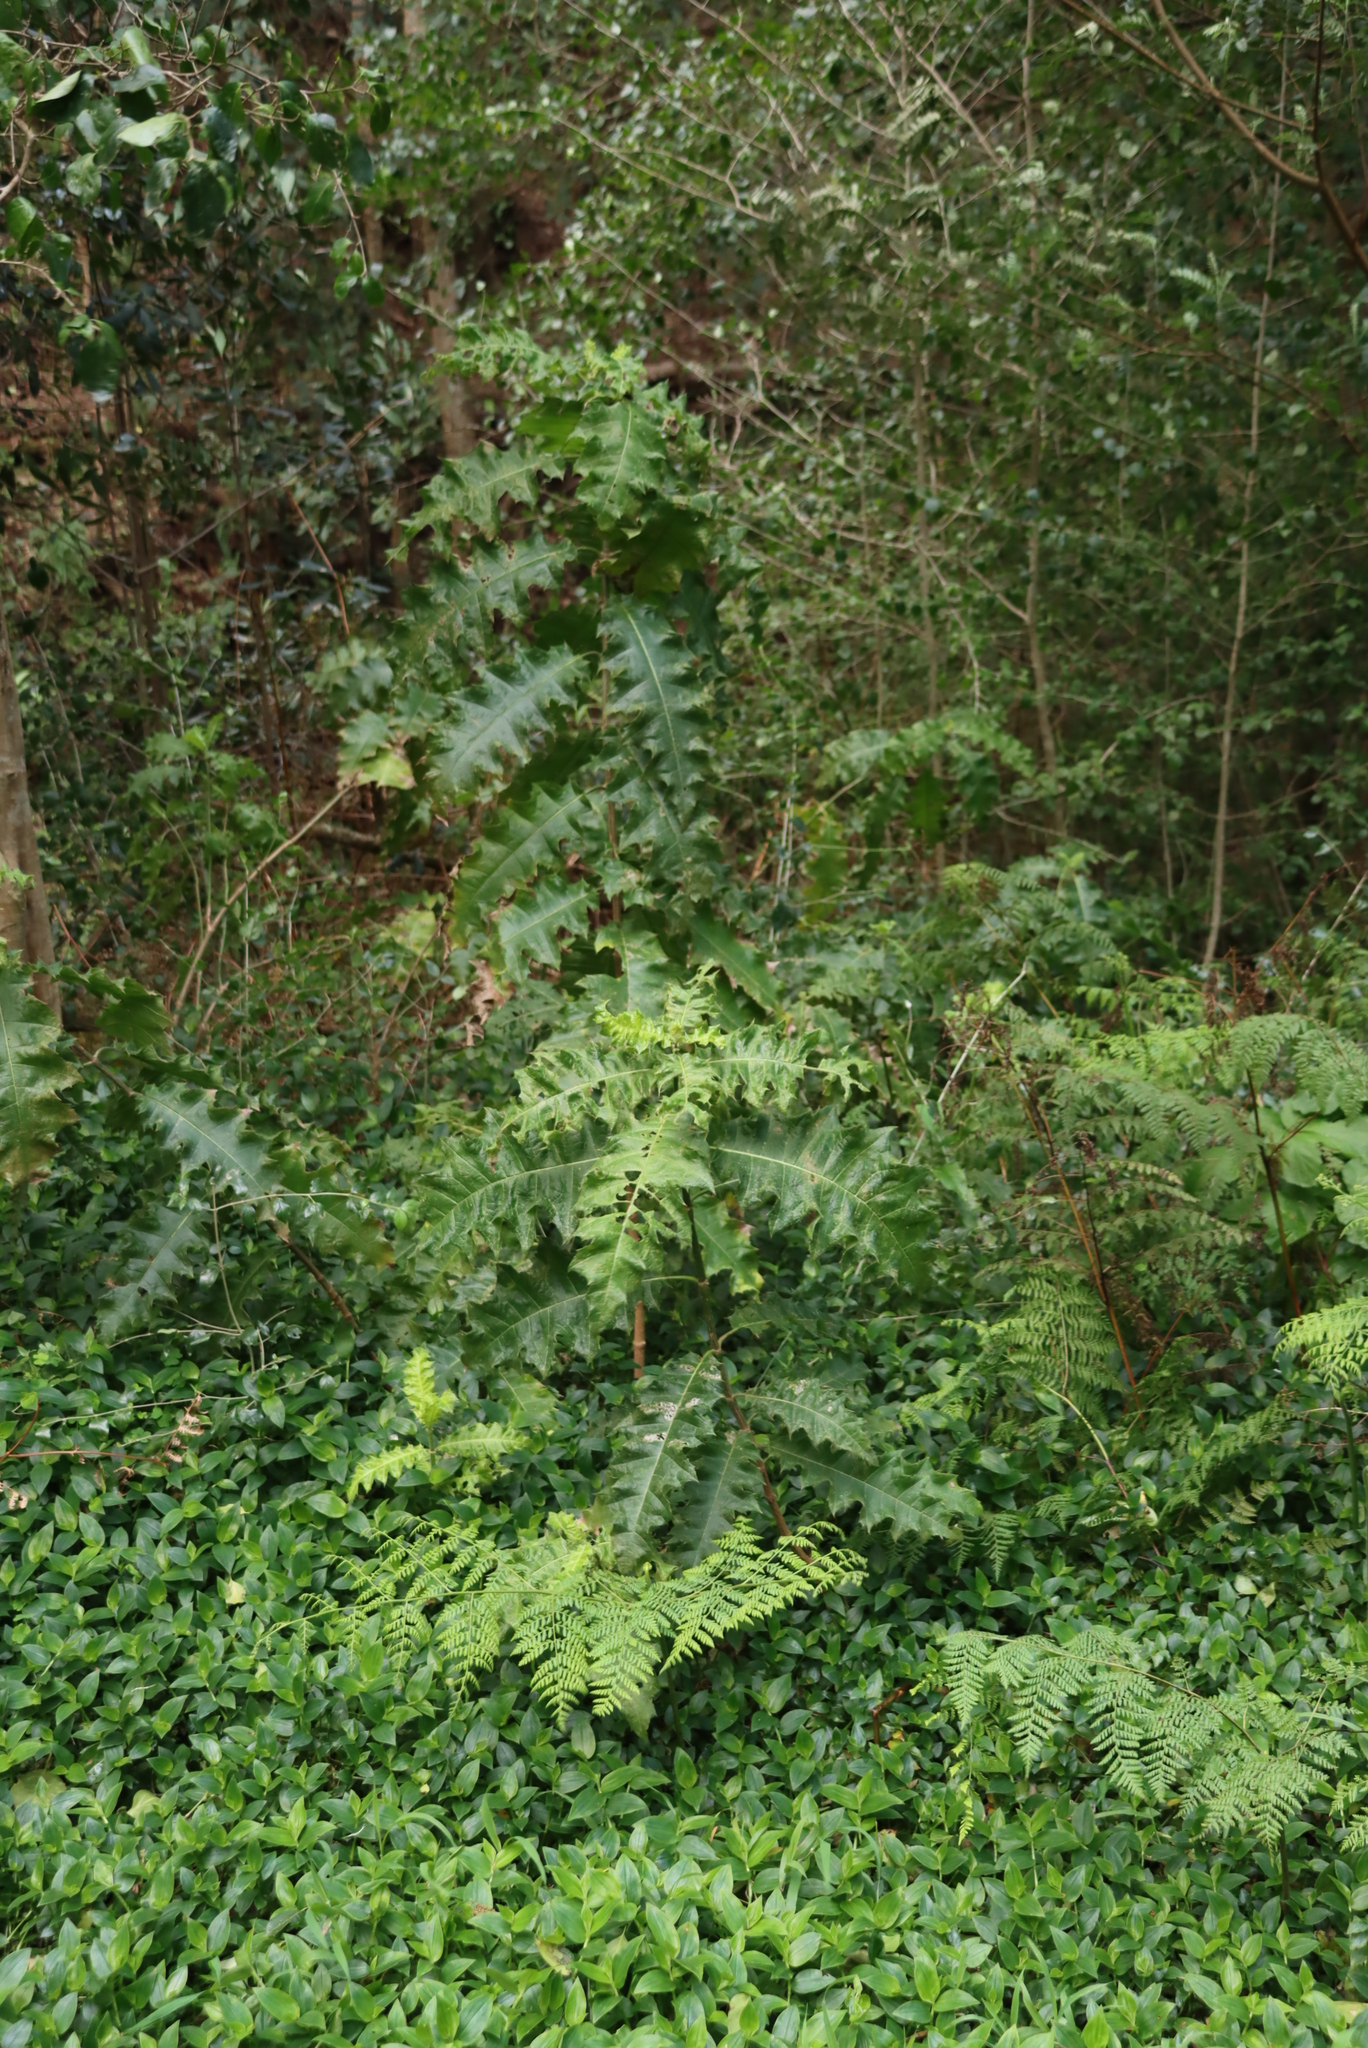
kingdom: Plantae
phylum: Tracheophyta
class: Magnoliopsida
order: Lamiales
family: Acanthaceae
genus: Acanthus
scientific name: Acanthus polystachyus
